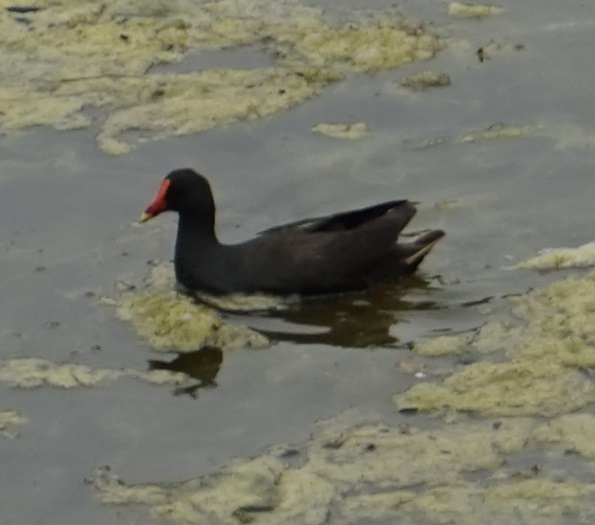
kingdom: Animalia
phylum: Chordata
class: Aves
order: Gruiformes
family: Rallidae
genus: Gallinula
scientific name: Gallinula tenebrosa
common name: Dusky moorhen
